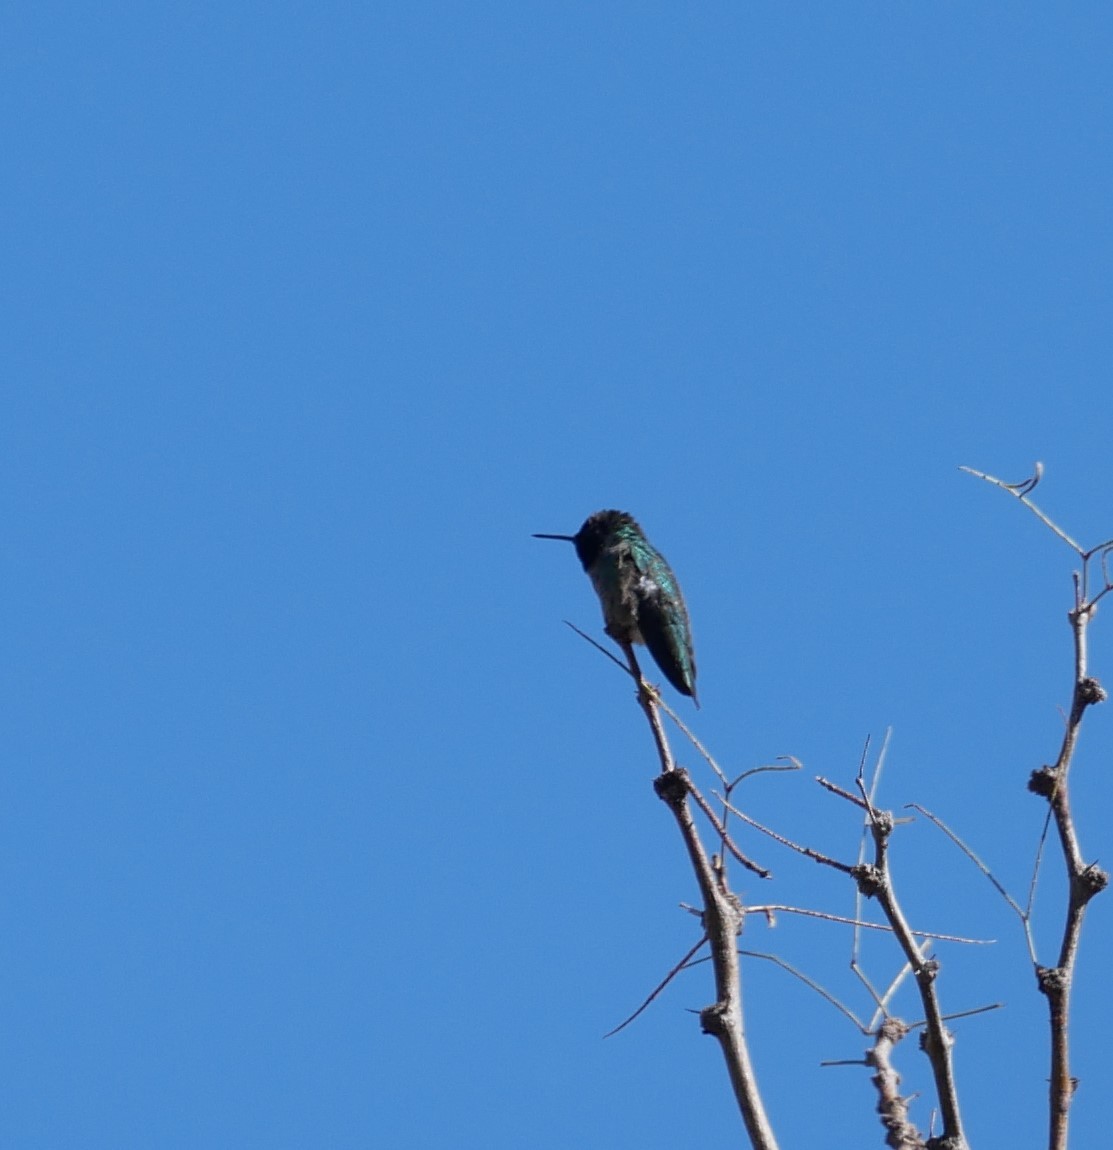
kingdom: Animalia
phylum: Chordata
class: Aves
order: Apodiformes
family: Trochilidae
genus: Calypte
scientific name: Calypte anna
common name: Anna's hummingbird
